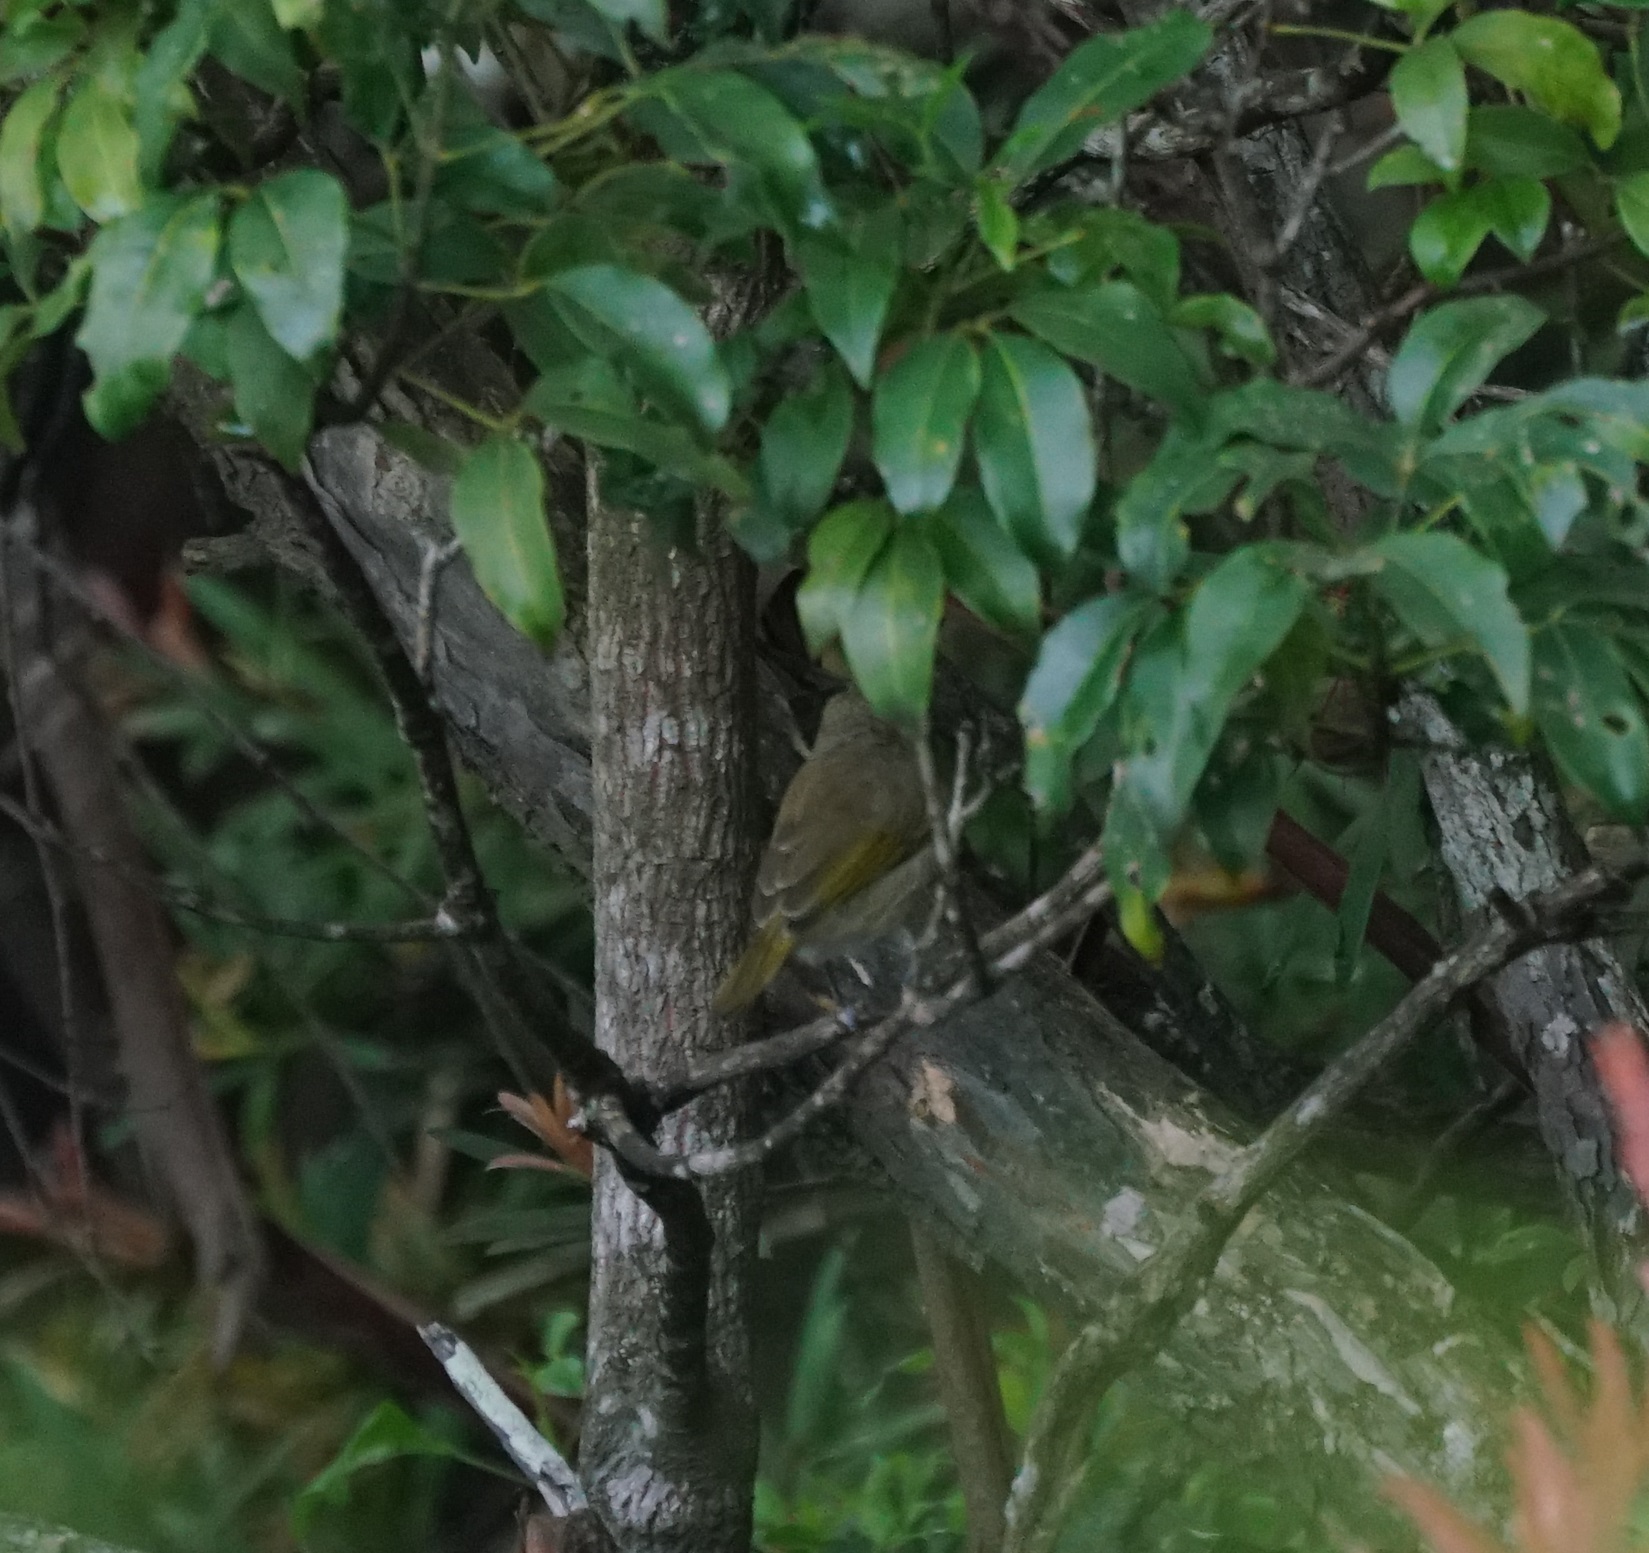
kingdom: Animalia
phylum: Chordata
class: Aves
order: Passeriformes
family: Meliphagidae
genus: Lichmera
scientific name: Lichmera indistincta
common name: Brown honeyeater
